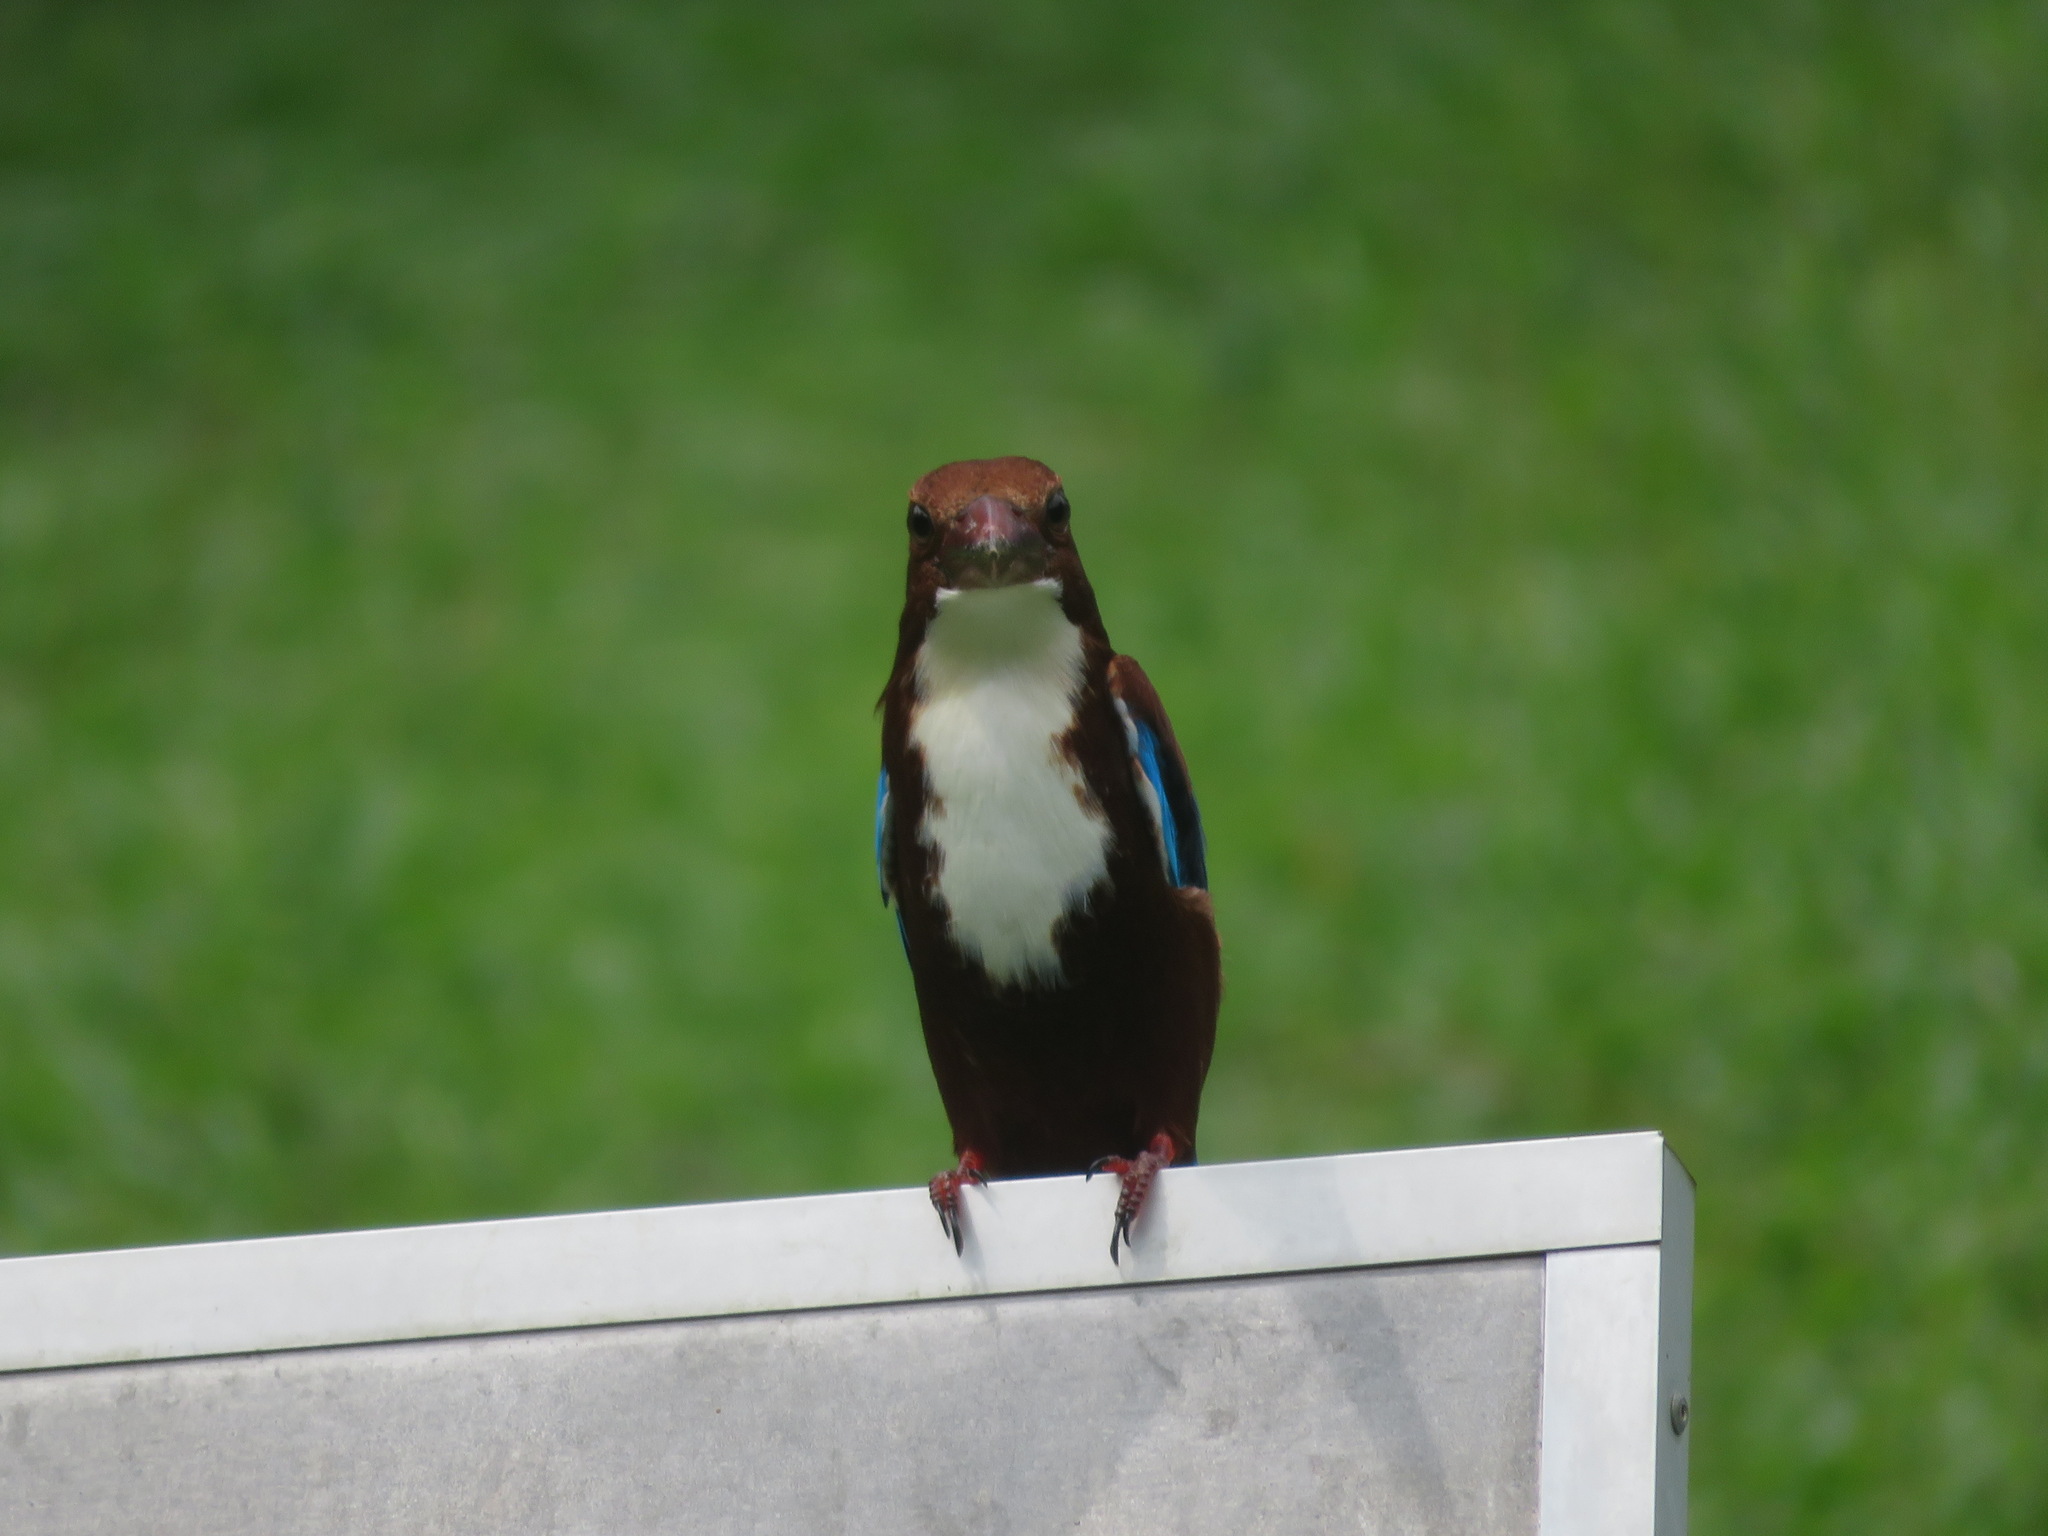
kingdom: Animalia
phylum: Chordata
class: Aves
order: Coraciiformes
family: Alcedinidae
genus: Halcyon
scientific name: Halcyon smyrnensis
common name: White-throated kingfisher
